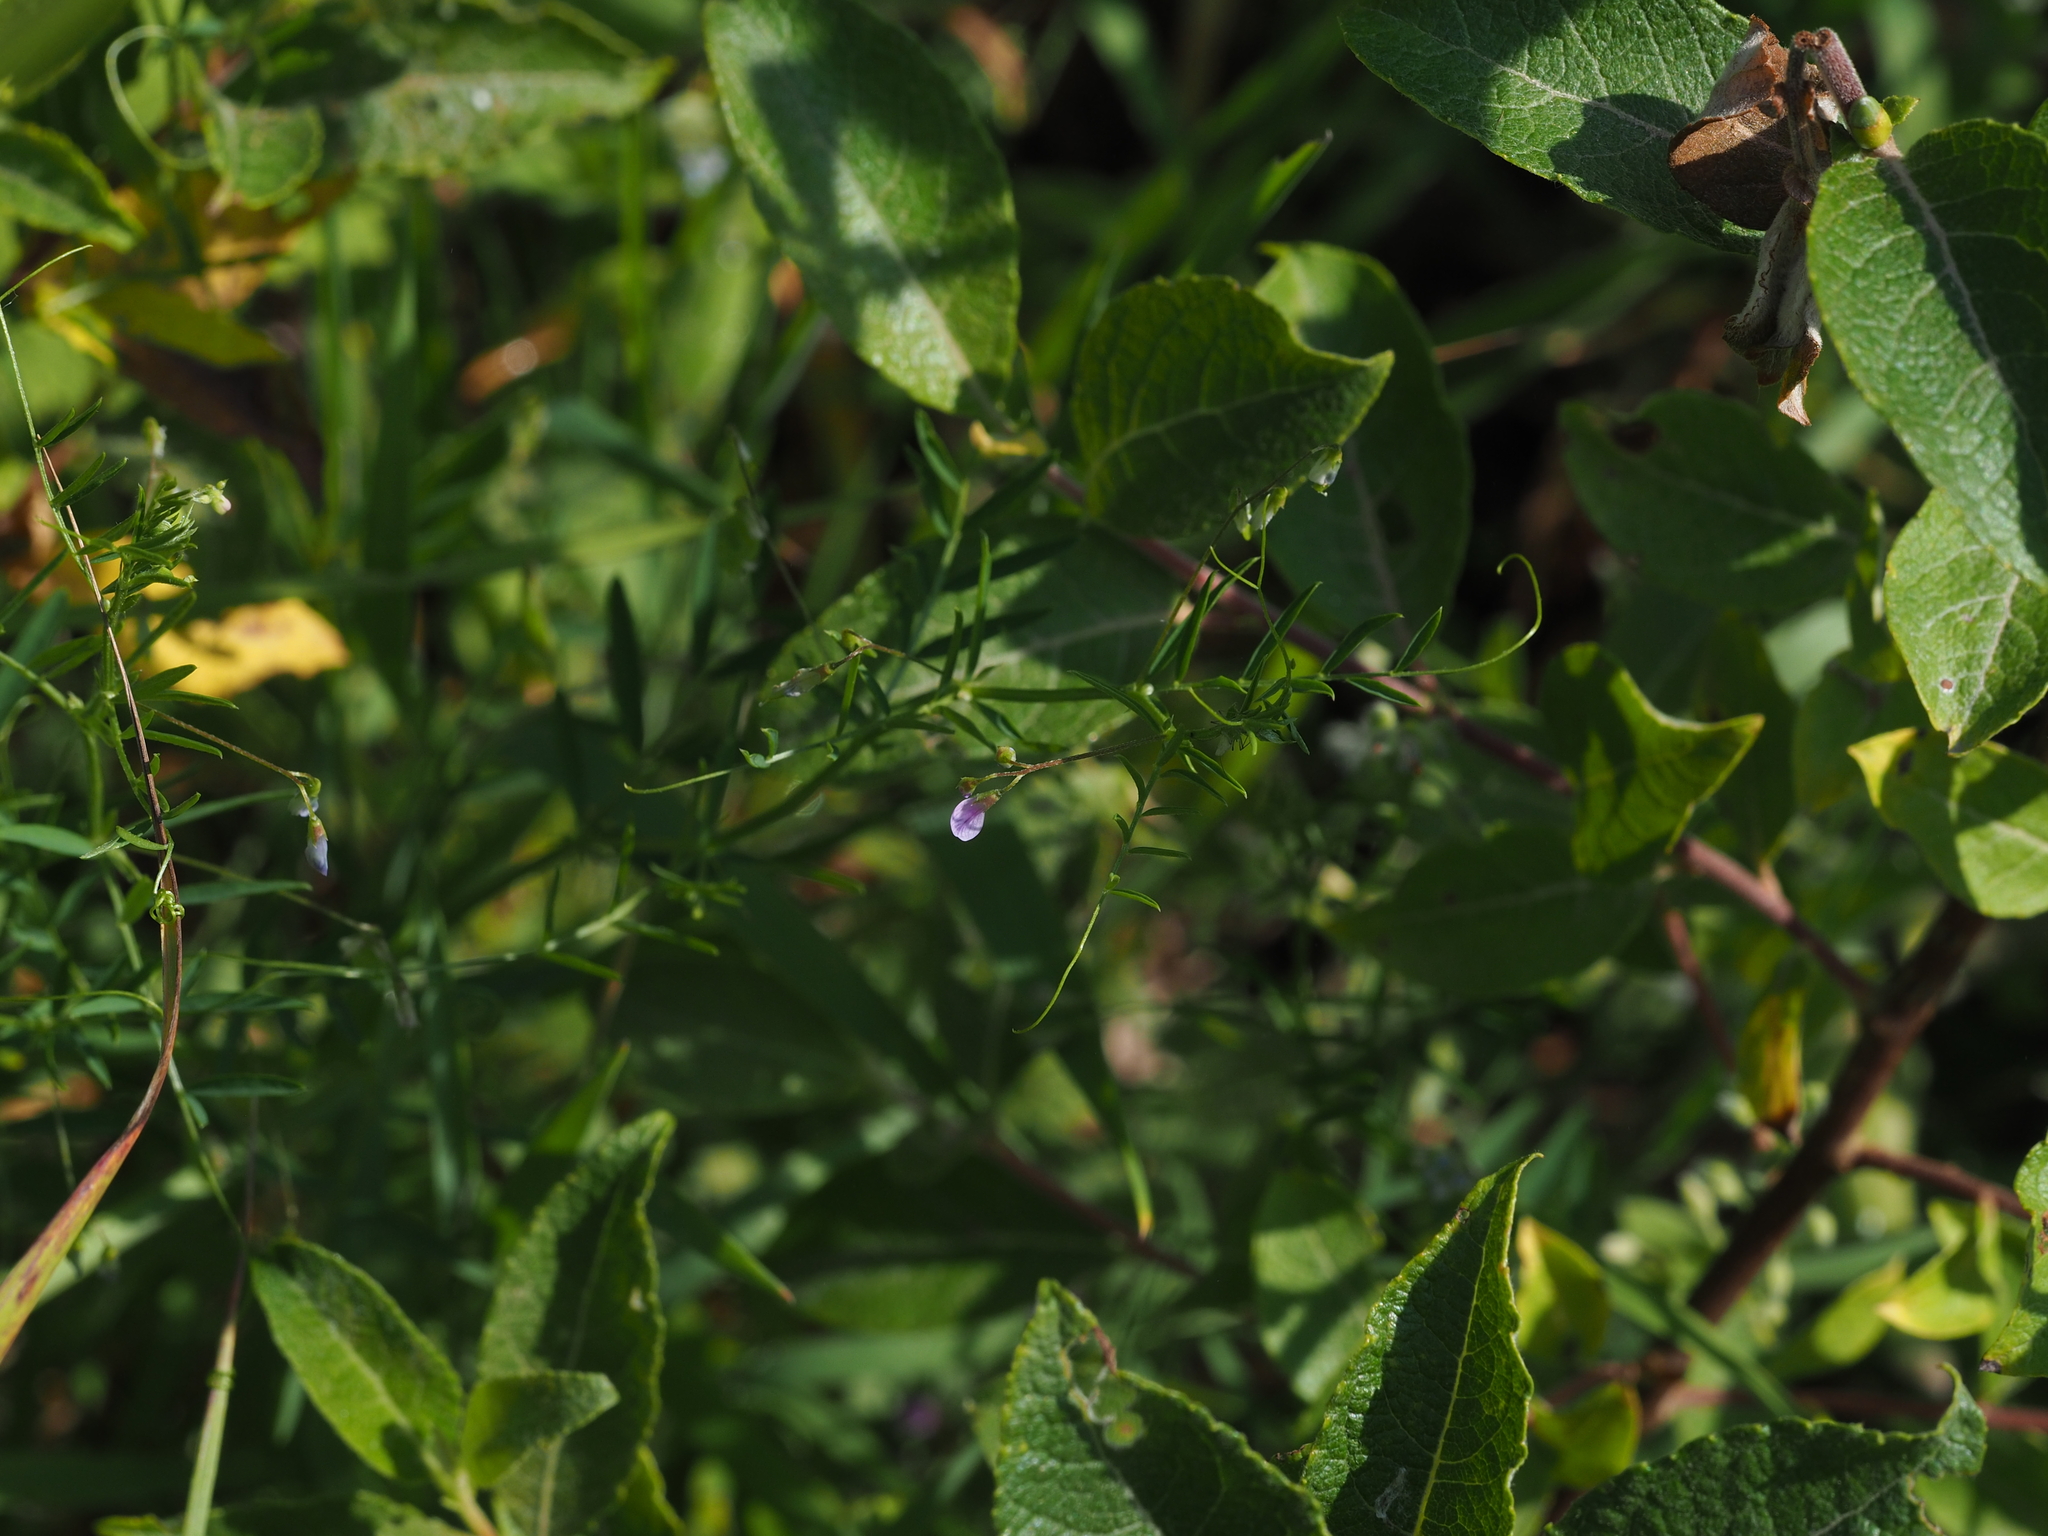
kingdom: Plantae
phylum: Tracheophyta
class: Magnoliopsida
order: Fabales
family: Fabaceae
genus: Vicia
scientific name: Vicia tetrasperma
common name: Smooth tare
